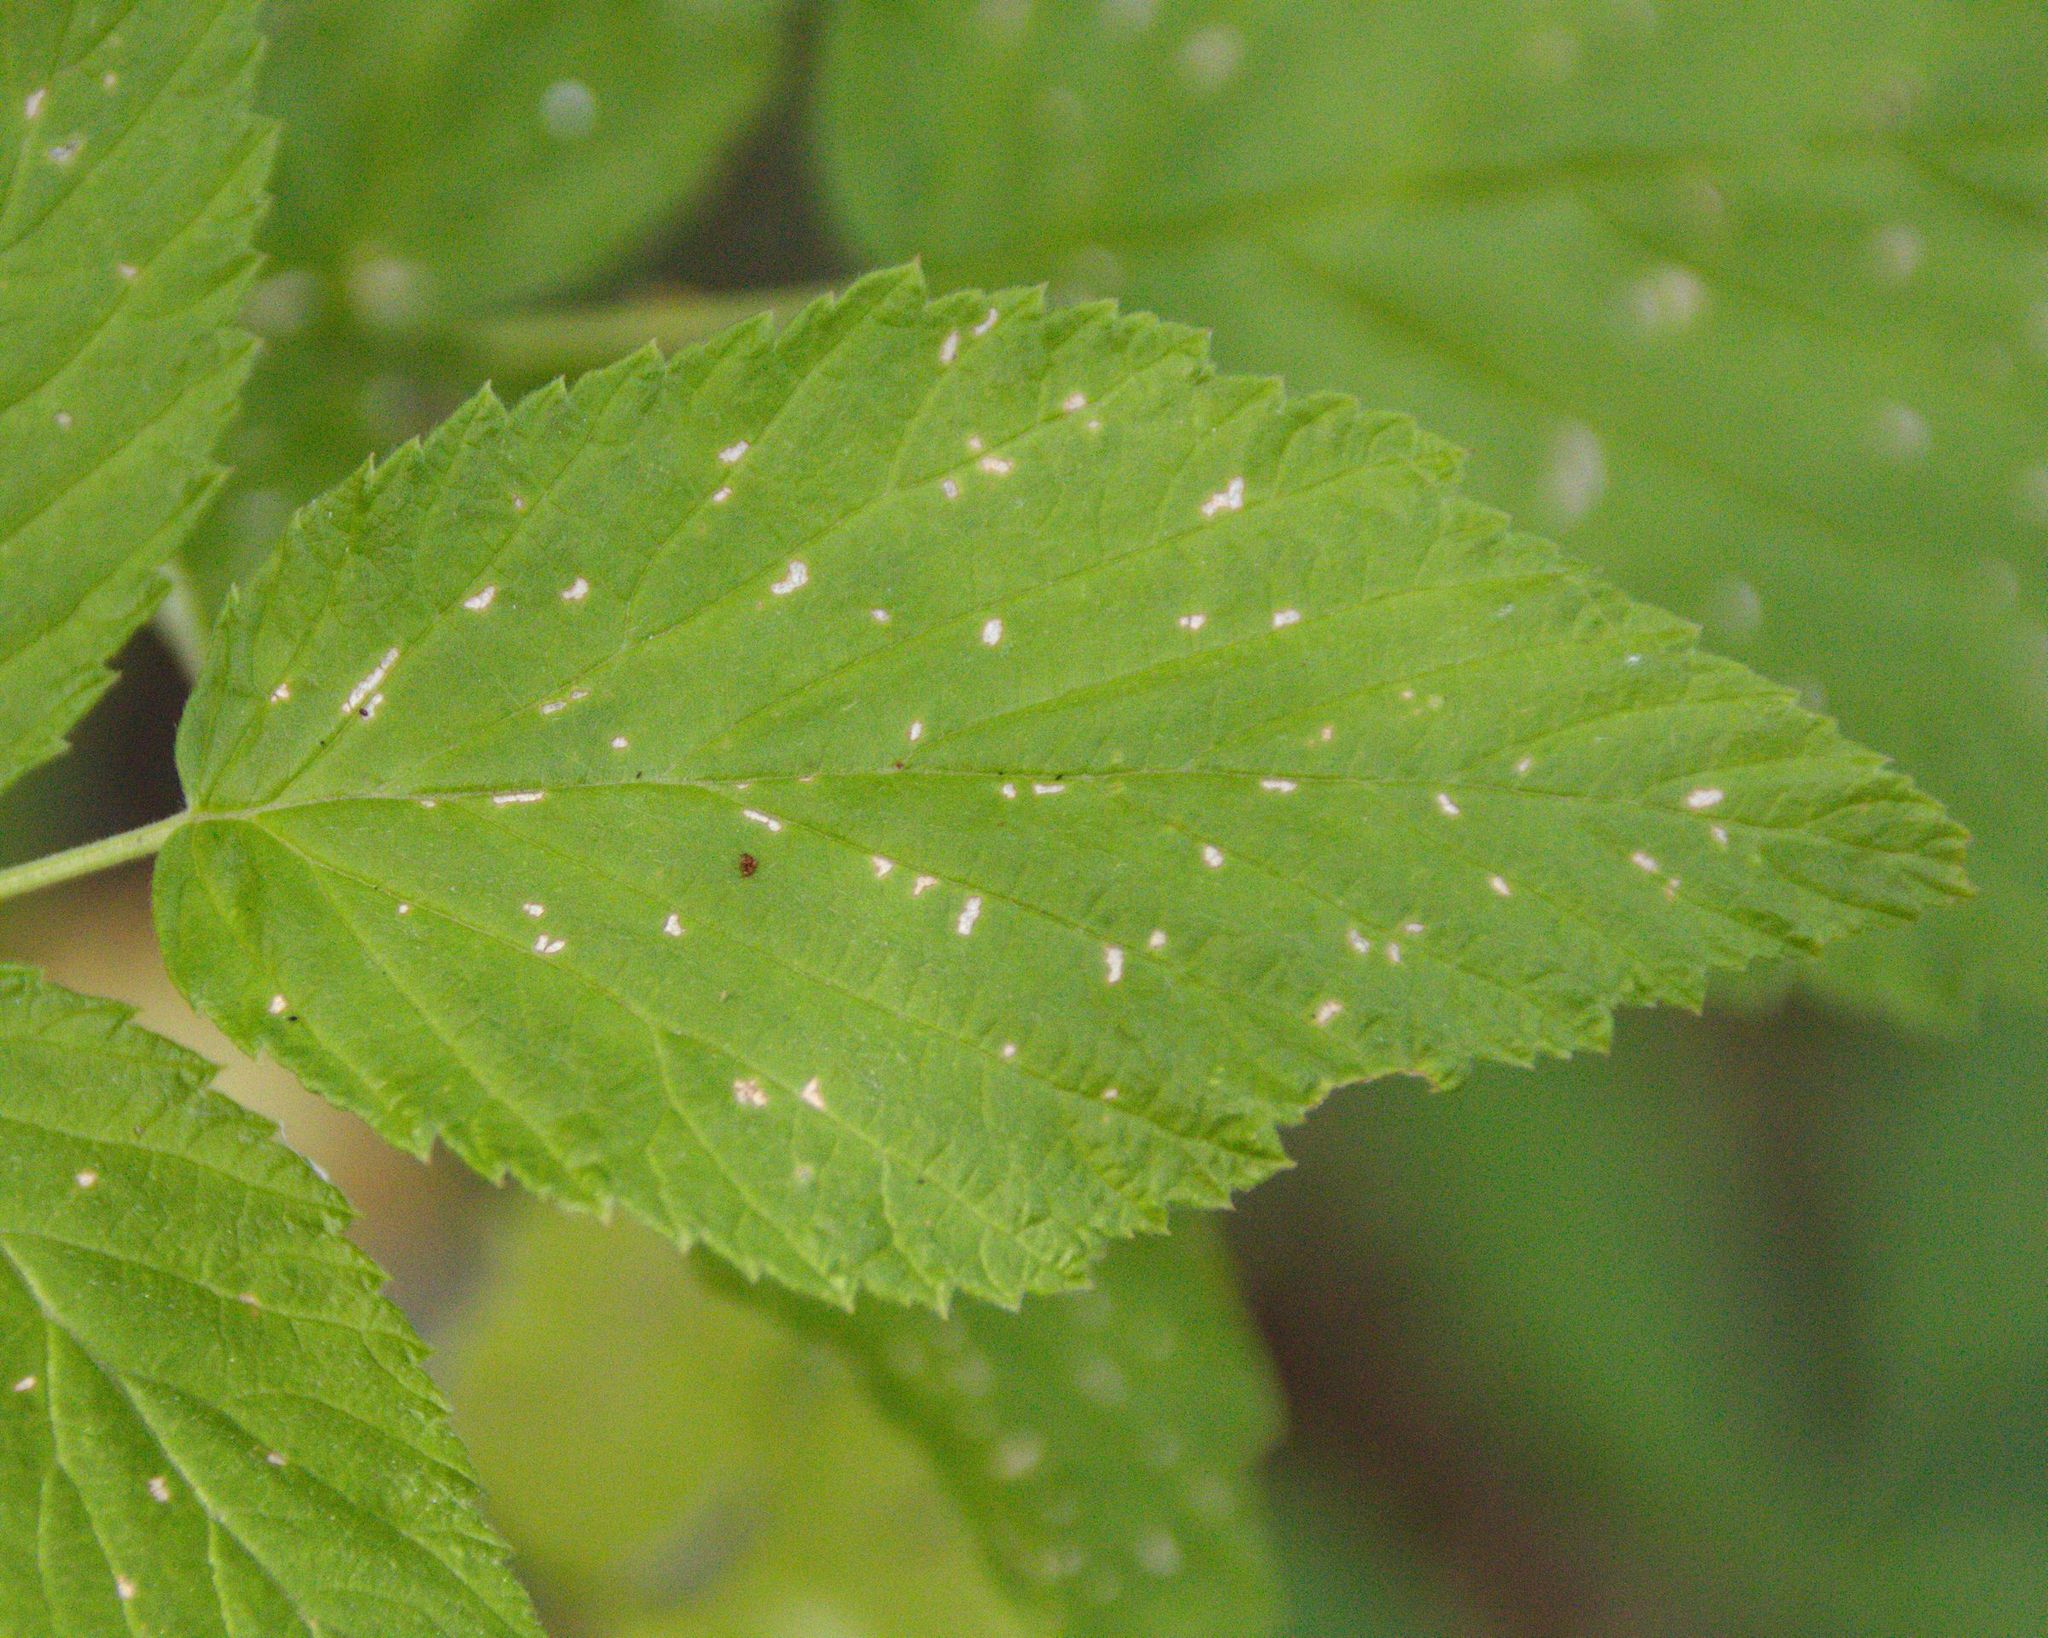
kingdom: Plantae
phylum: Tracheophyta
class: Magnoliopsida
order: Rosales
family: Rosaceae
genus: Rubus
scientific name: Rubus idaeus
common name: Raspberry
